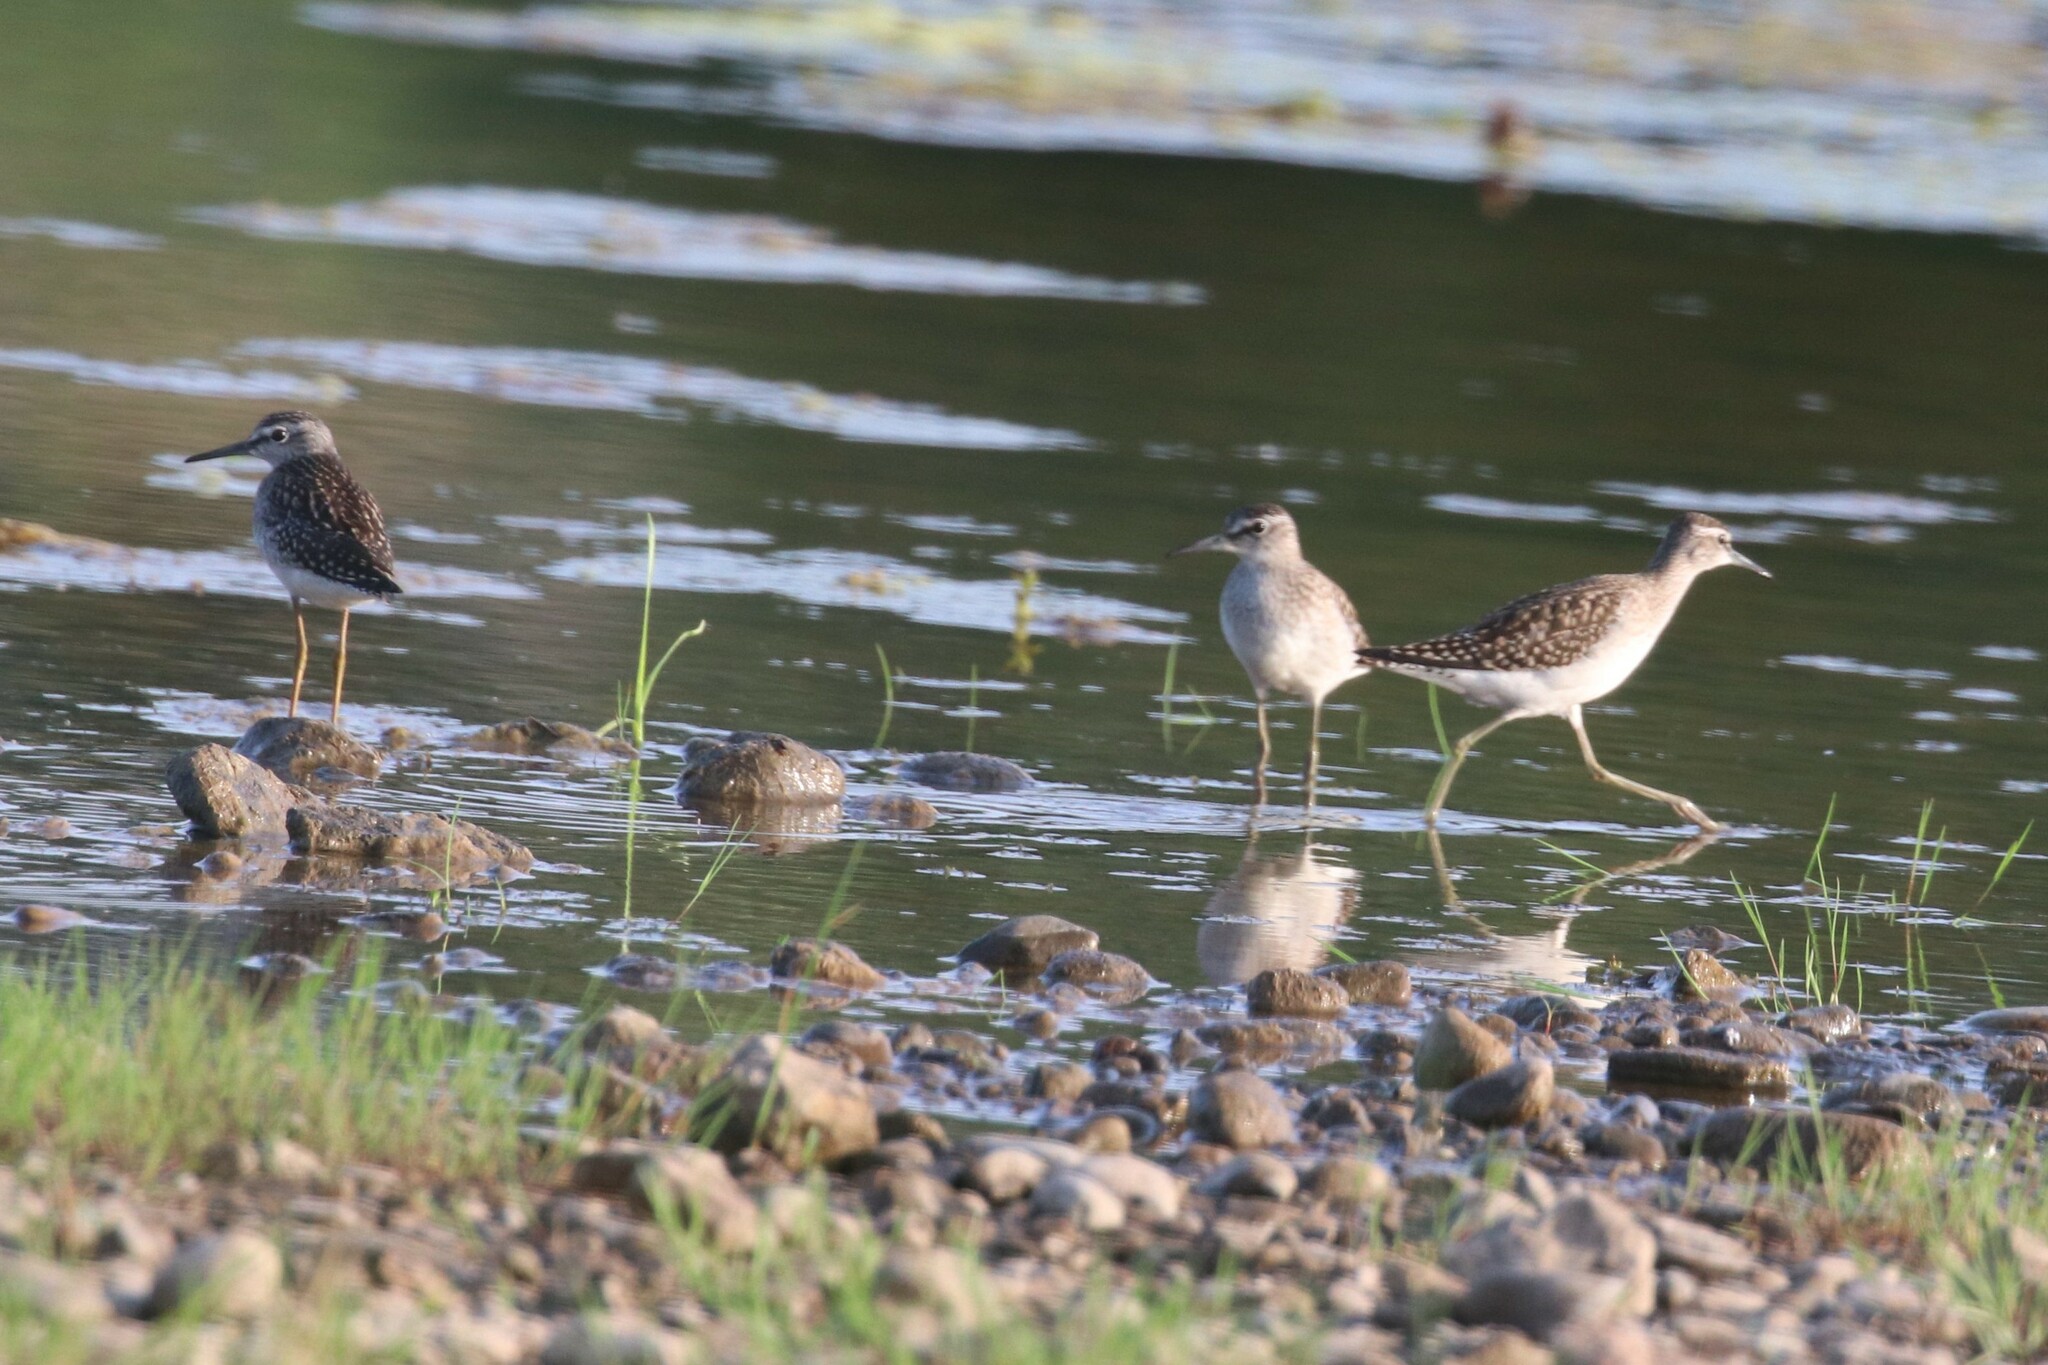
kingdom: Animalia
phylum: Chordata
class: Aves
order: Charadriiformes
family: Scolopacidae
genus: Tringa
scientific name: Tringa glareola
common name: Wood sandpiper
